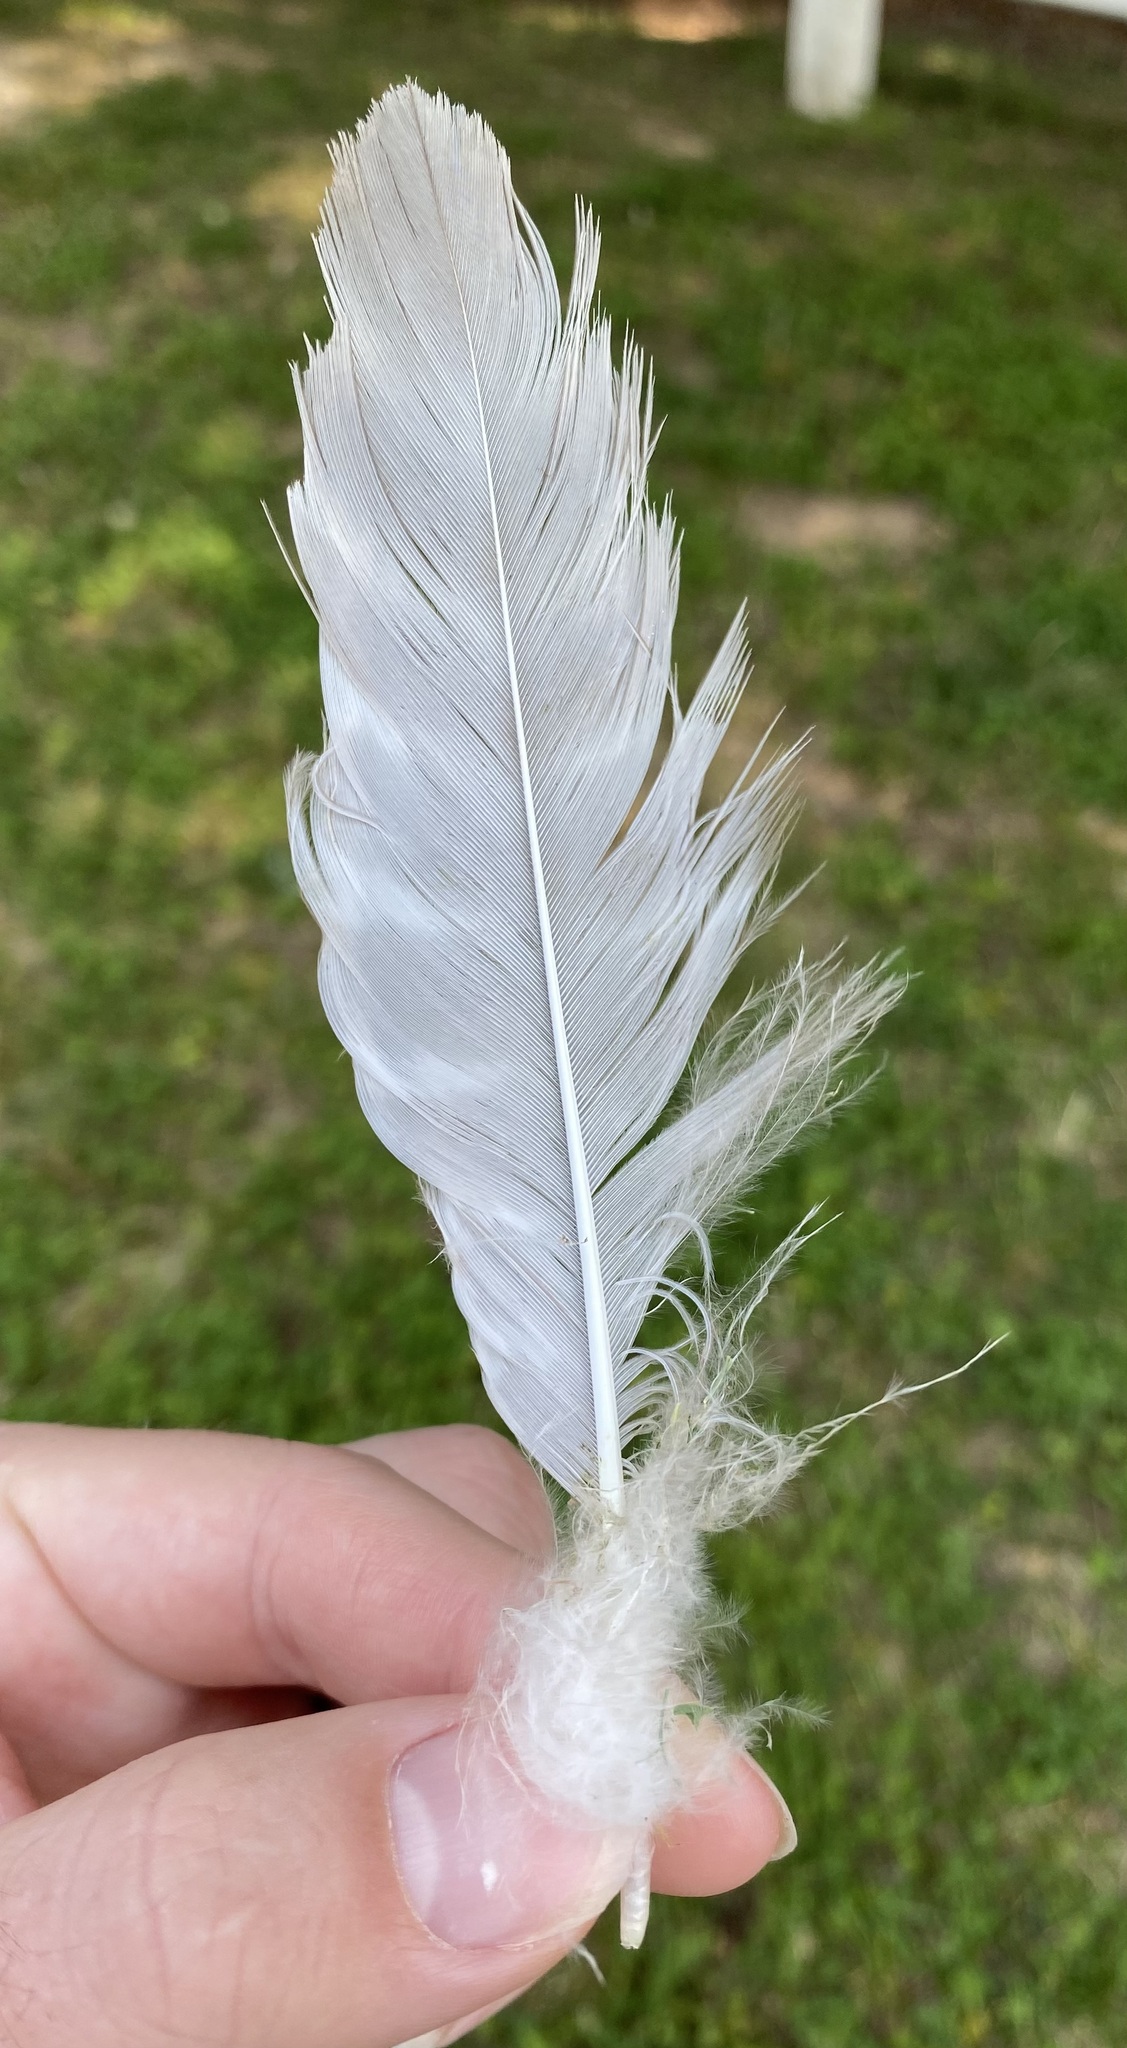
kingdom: Animalia
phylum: Chordata
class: Aves
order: Accipitriformes
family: Accipitridae
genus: Buteo
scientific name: Buteo lineatus
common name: Red-shouldered hawk
